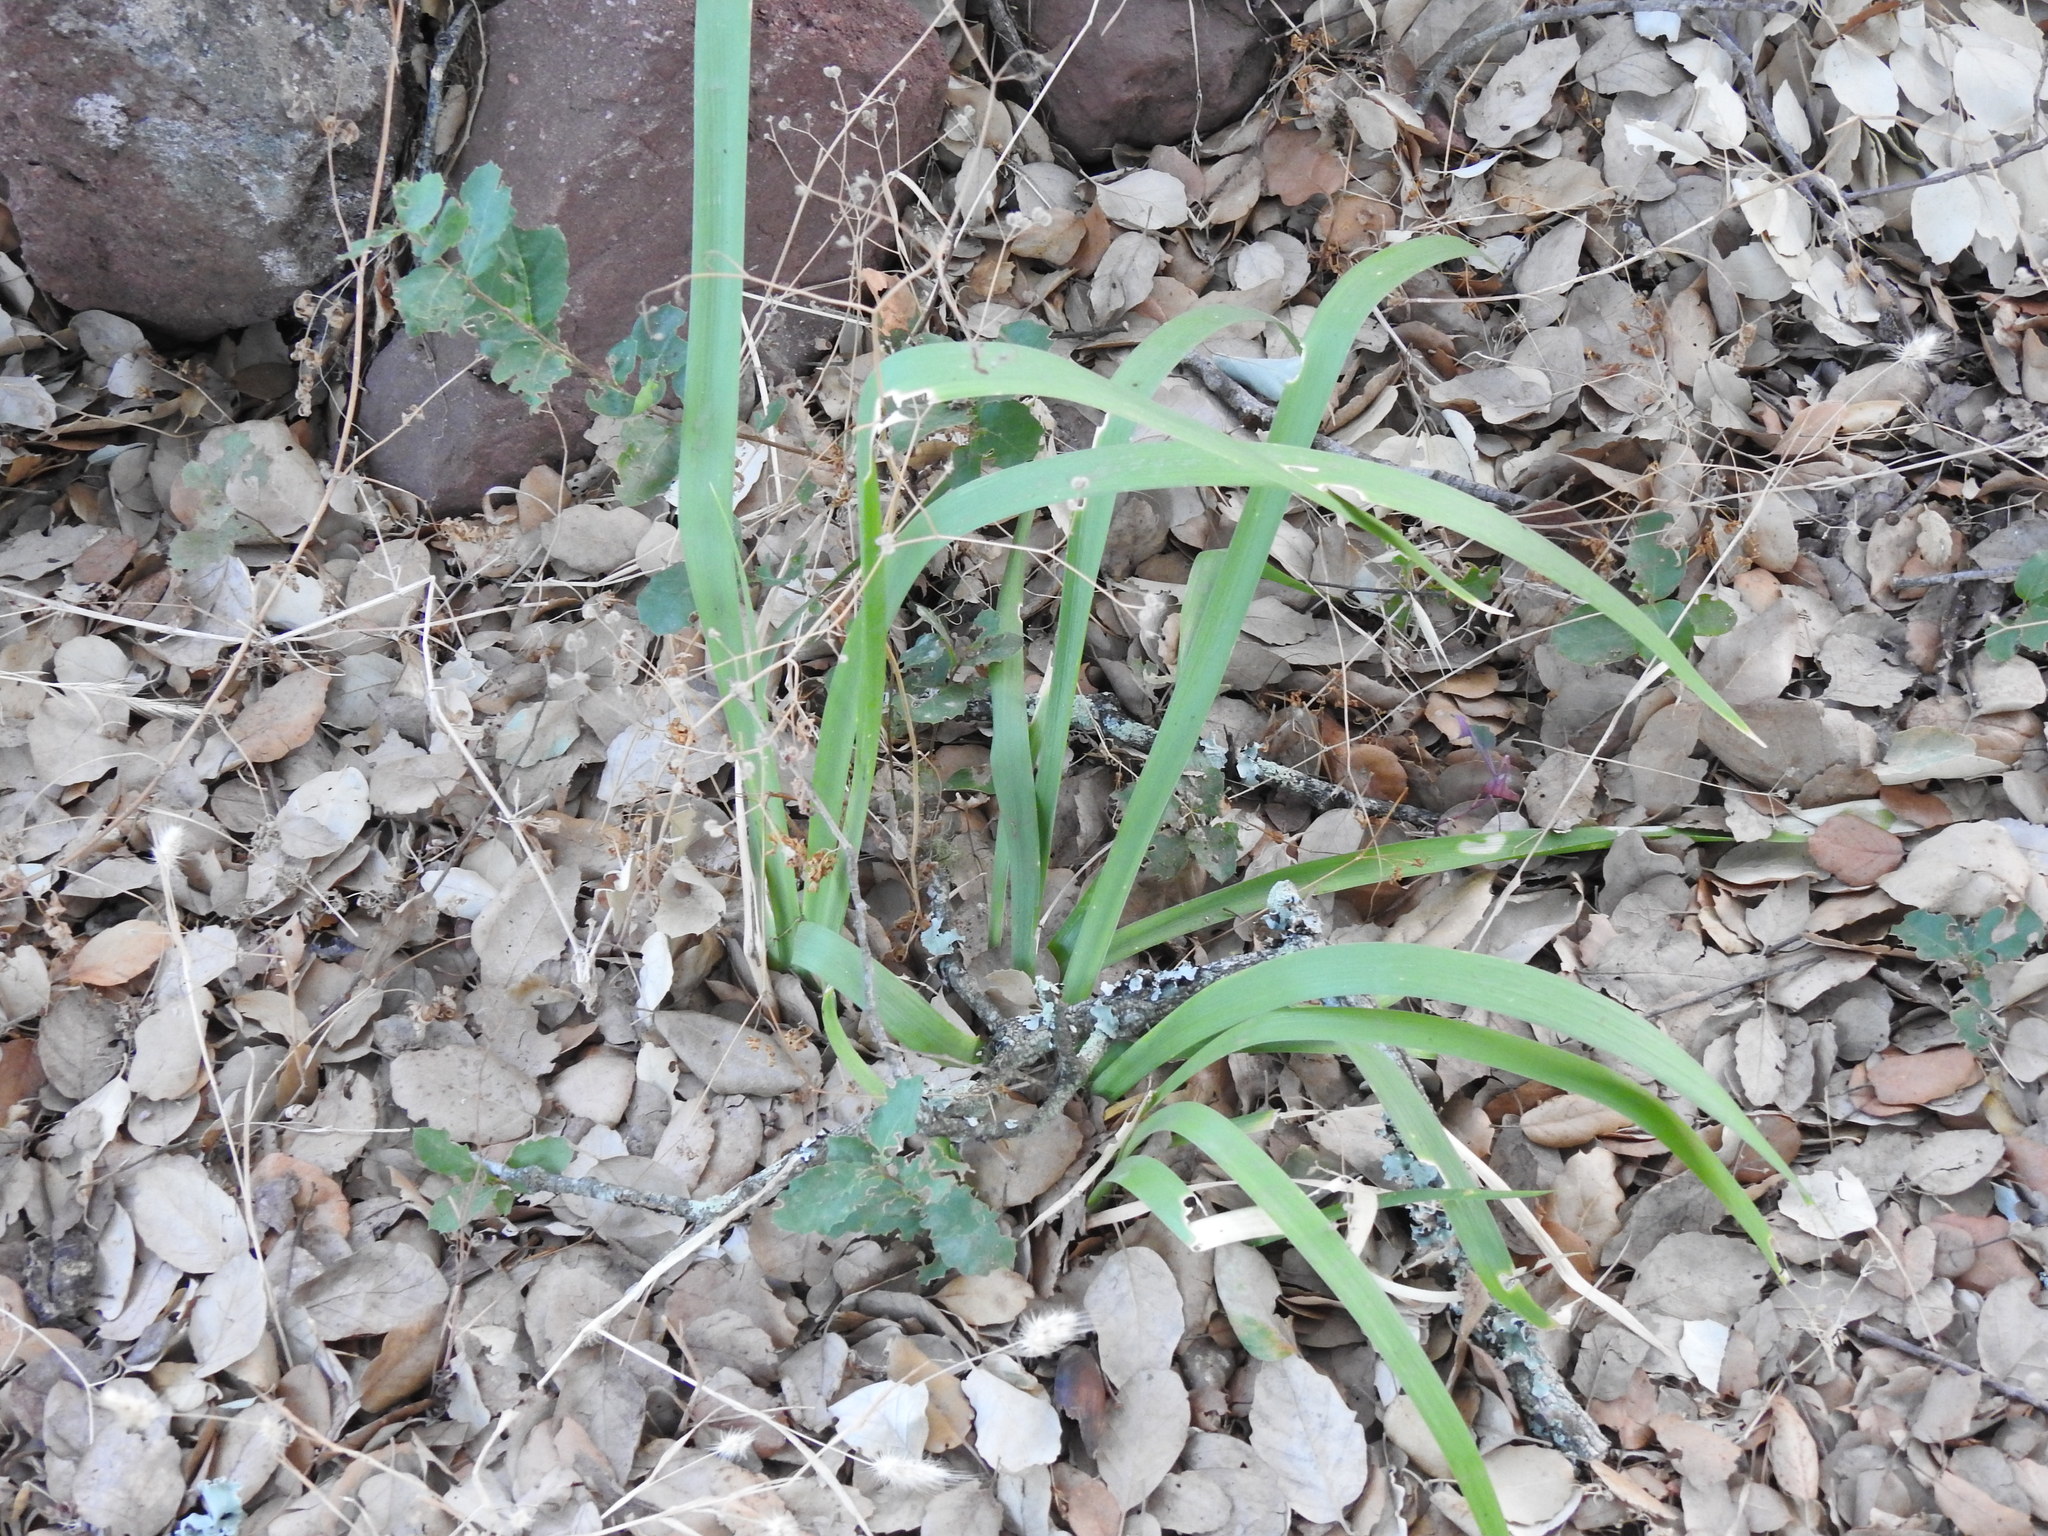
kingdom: Plantae
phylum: Tracheophyta
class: Liliopsida
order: Asparagales
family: Iridaceae
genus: Iris
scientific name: Iris foetidissima
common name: Stinking iris
